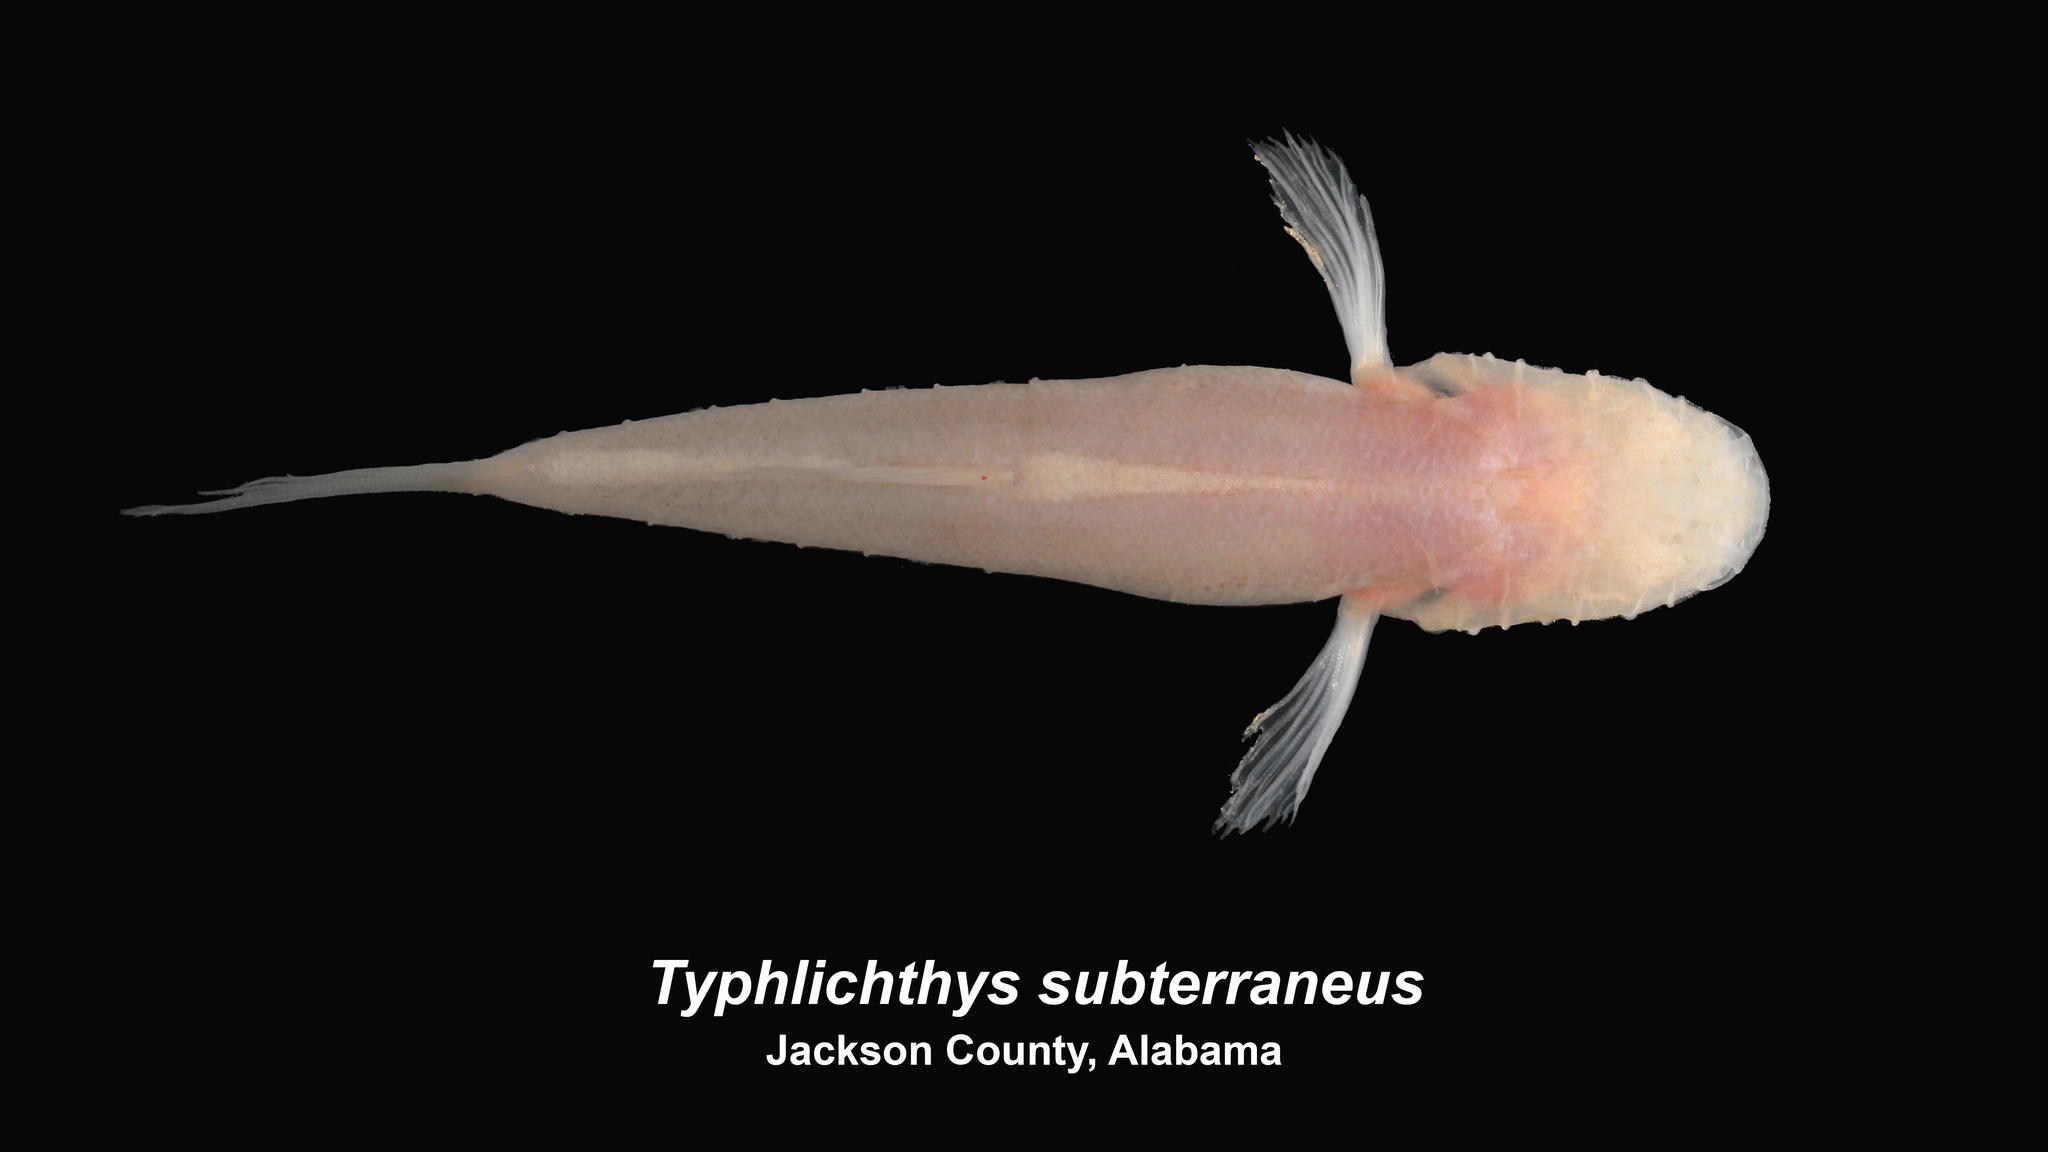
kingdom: Animalia
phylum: Chordata
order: Percopsiformes
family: Amblyopsidae
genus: Typhlichthys
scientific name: Typhlichthys subterraneus
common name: Southern cavefish
